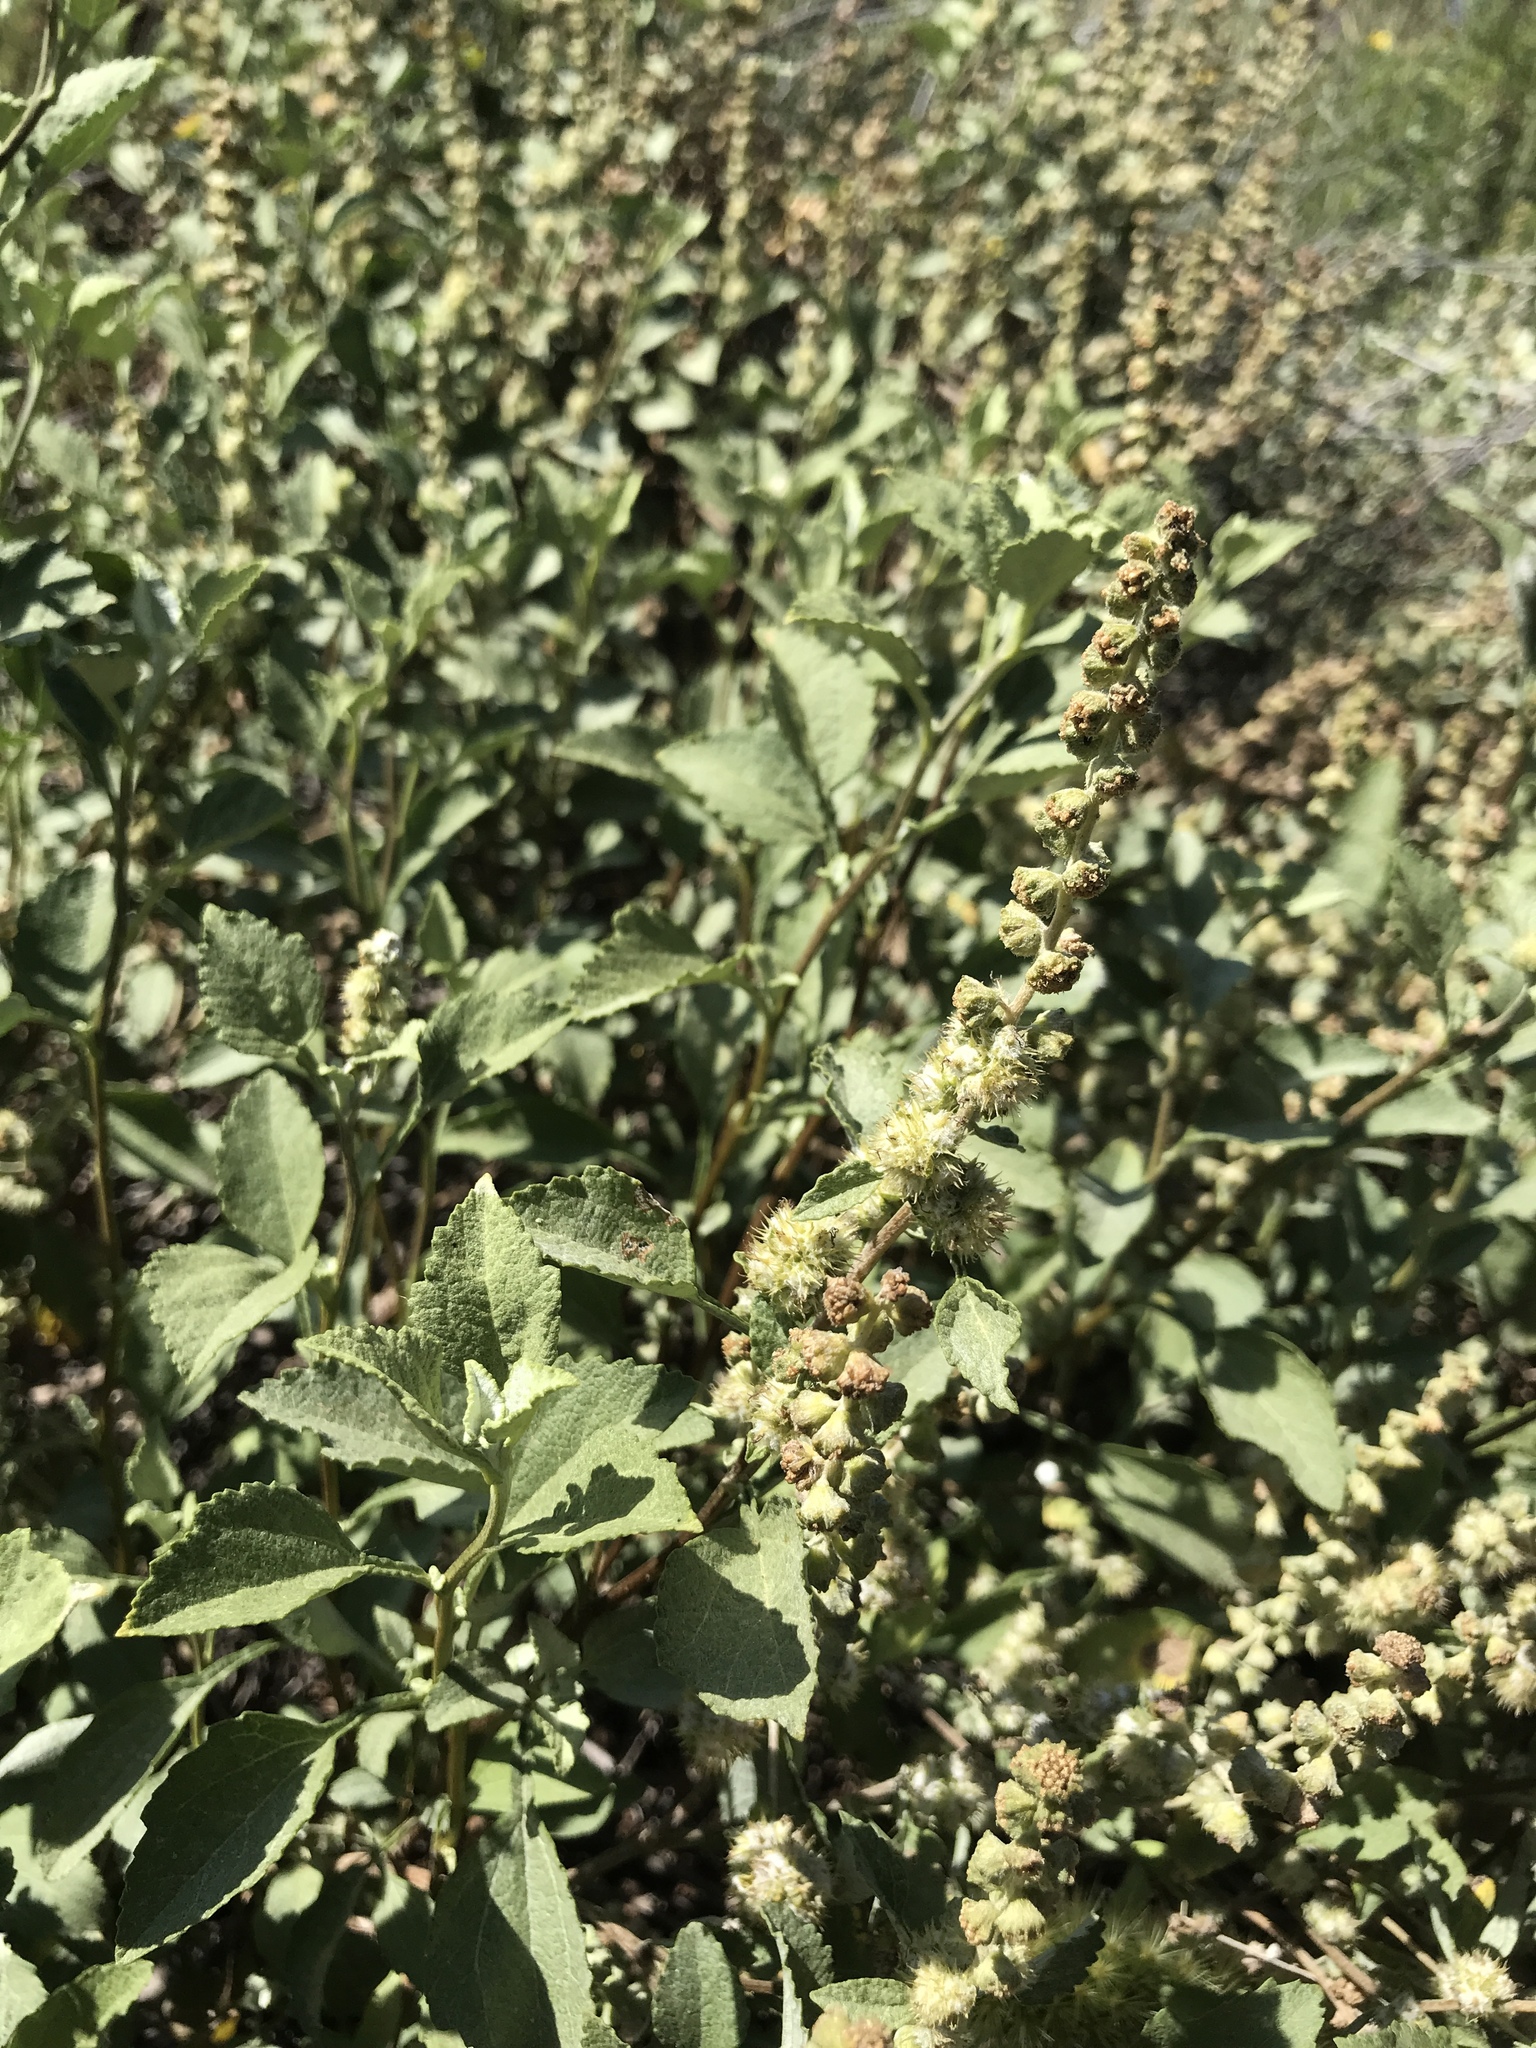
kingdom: Plantae
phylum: Tracheophyta
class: Magnoliopsida
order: Asterales
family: Asteraceae
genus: Ambrosia
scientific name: Ambrosia chenopodiifolia
